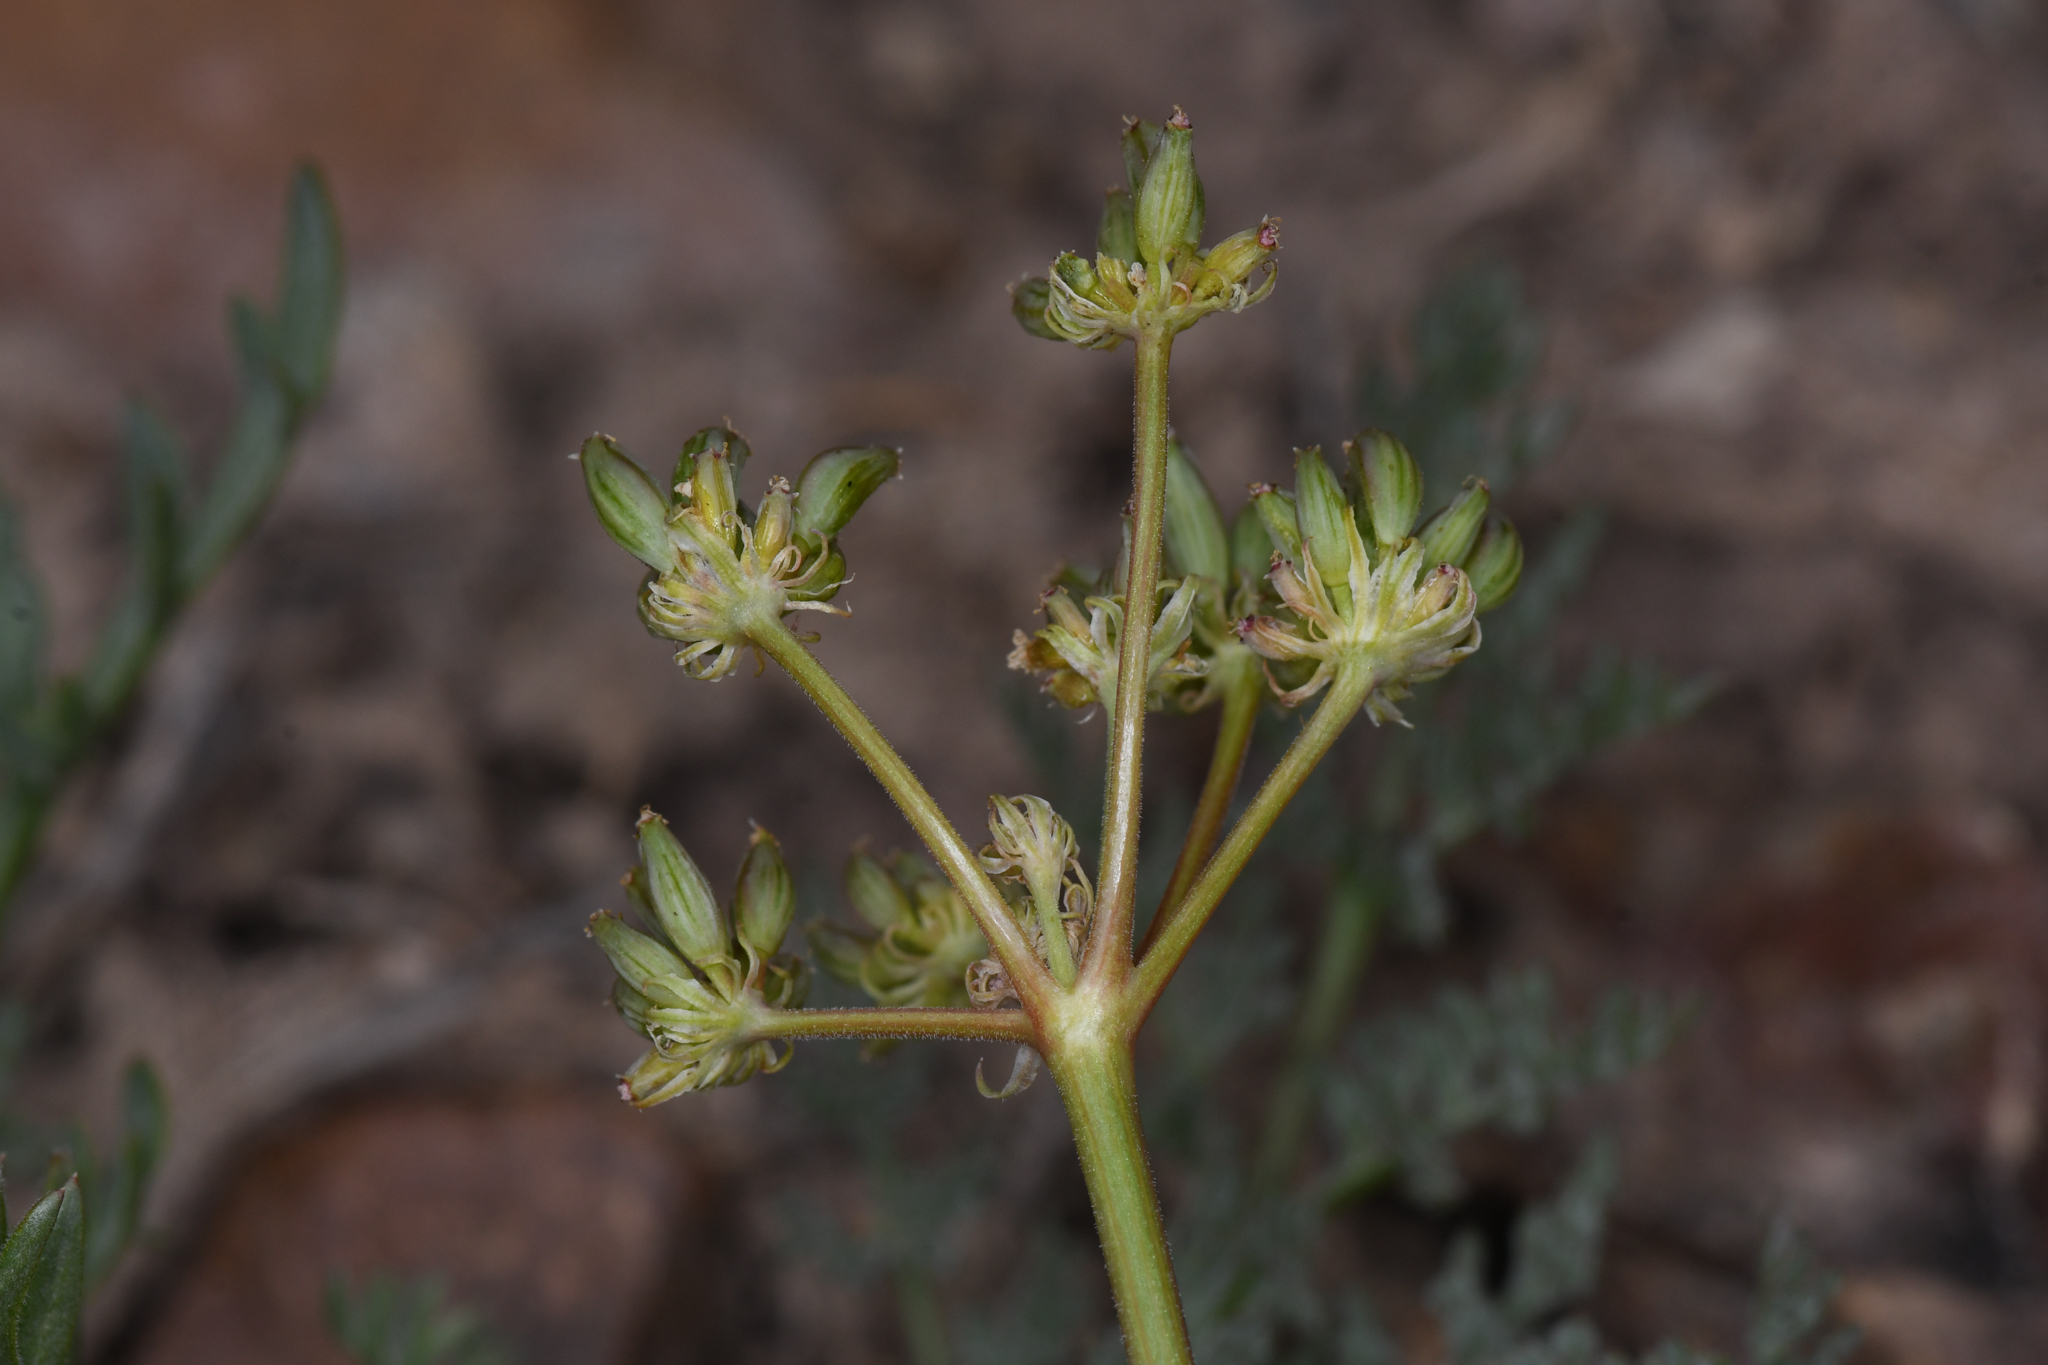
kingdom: Plantae
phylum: Tracheophyta
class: Magnoliopsida
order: Apiales
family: Apiaceae
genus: Lomatium
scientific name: Lomatium austiniae
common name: Plumas lomatium
